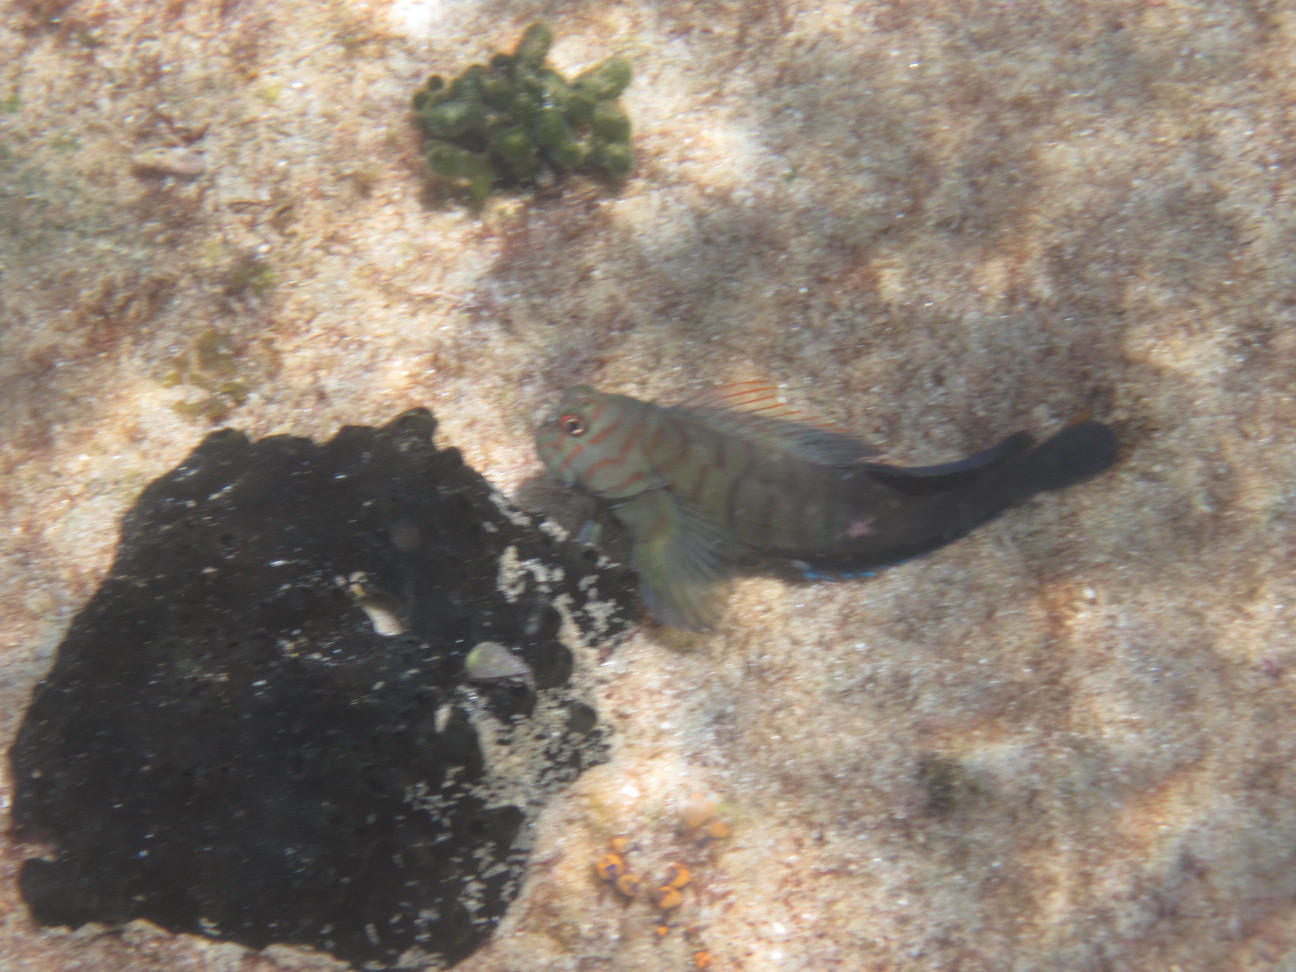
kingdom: Animalia
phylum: Chordata
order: Perciformes
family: Blenniidae
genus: Cirripectes
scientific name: Cirripectes castaneus
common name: Chestnut blenny
